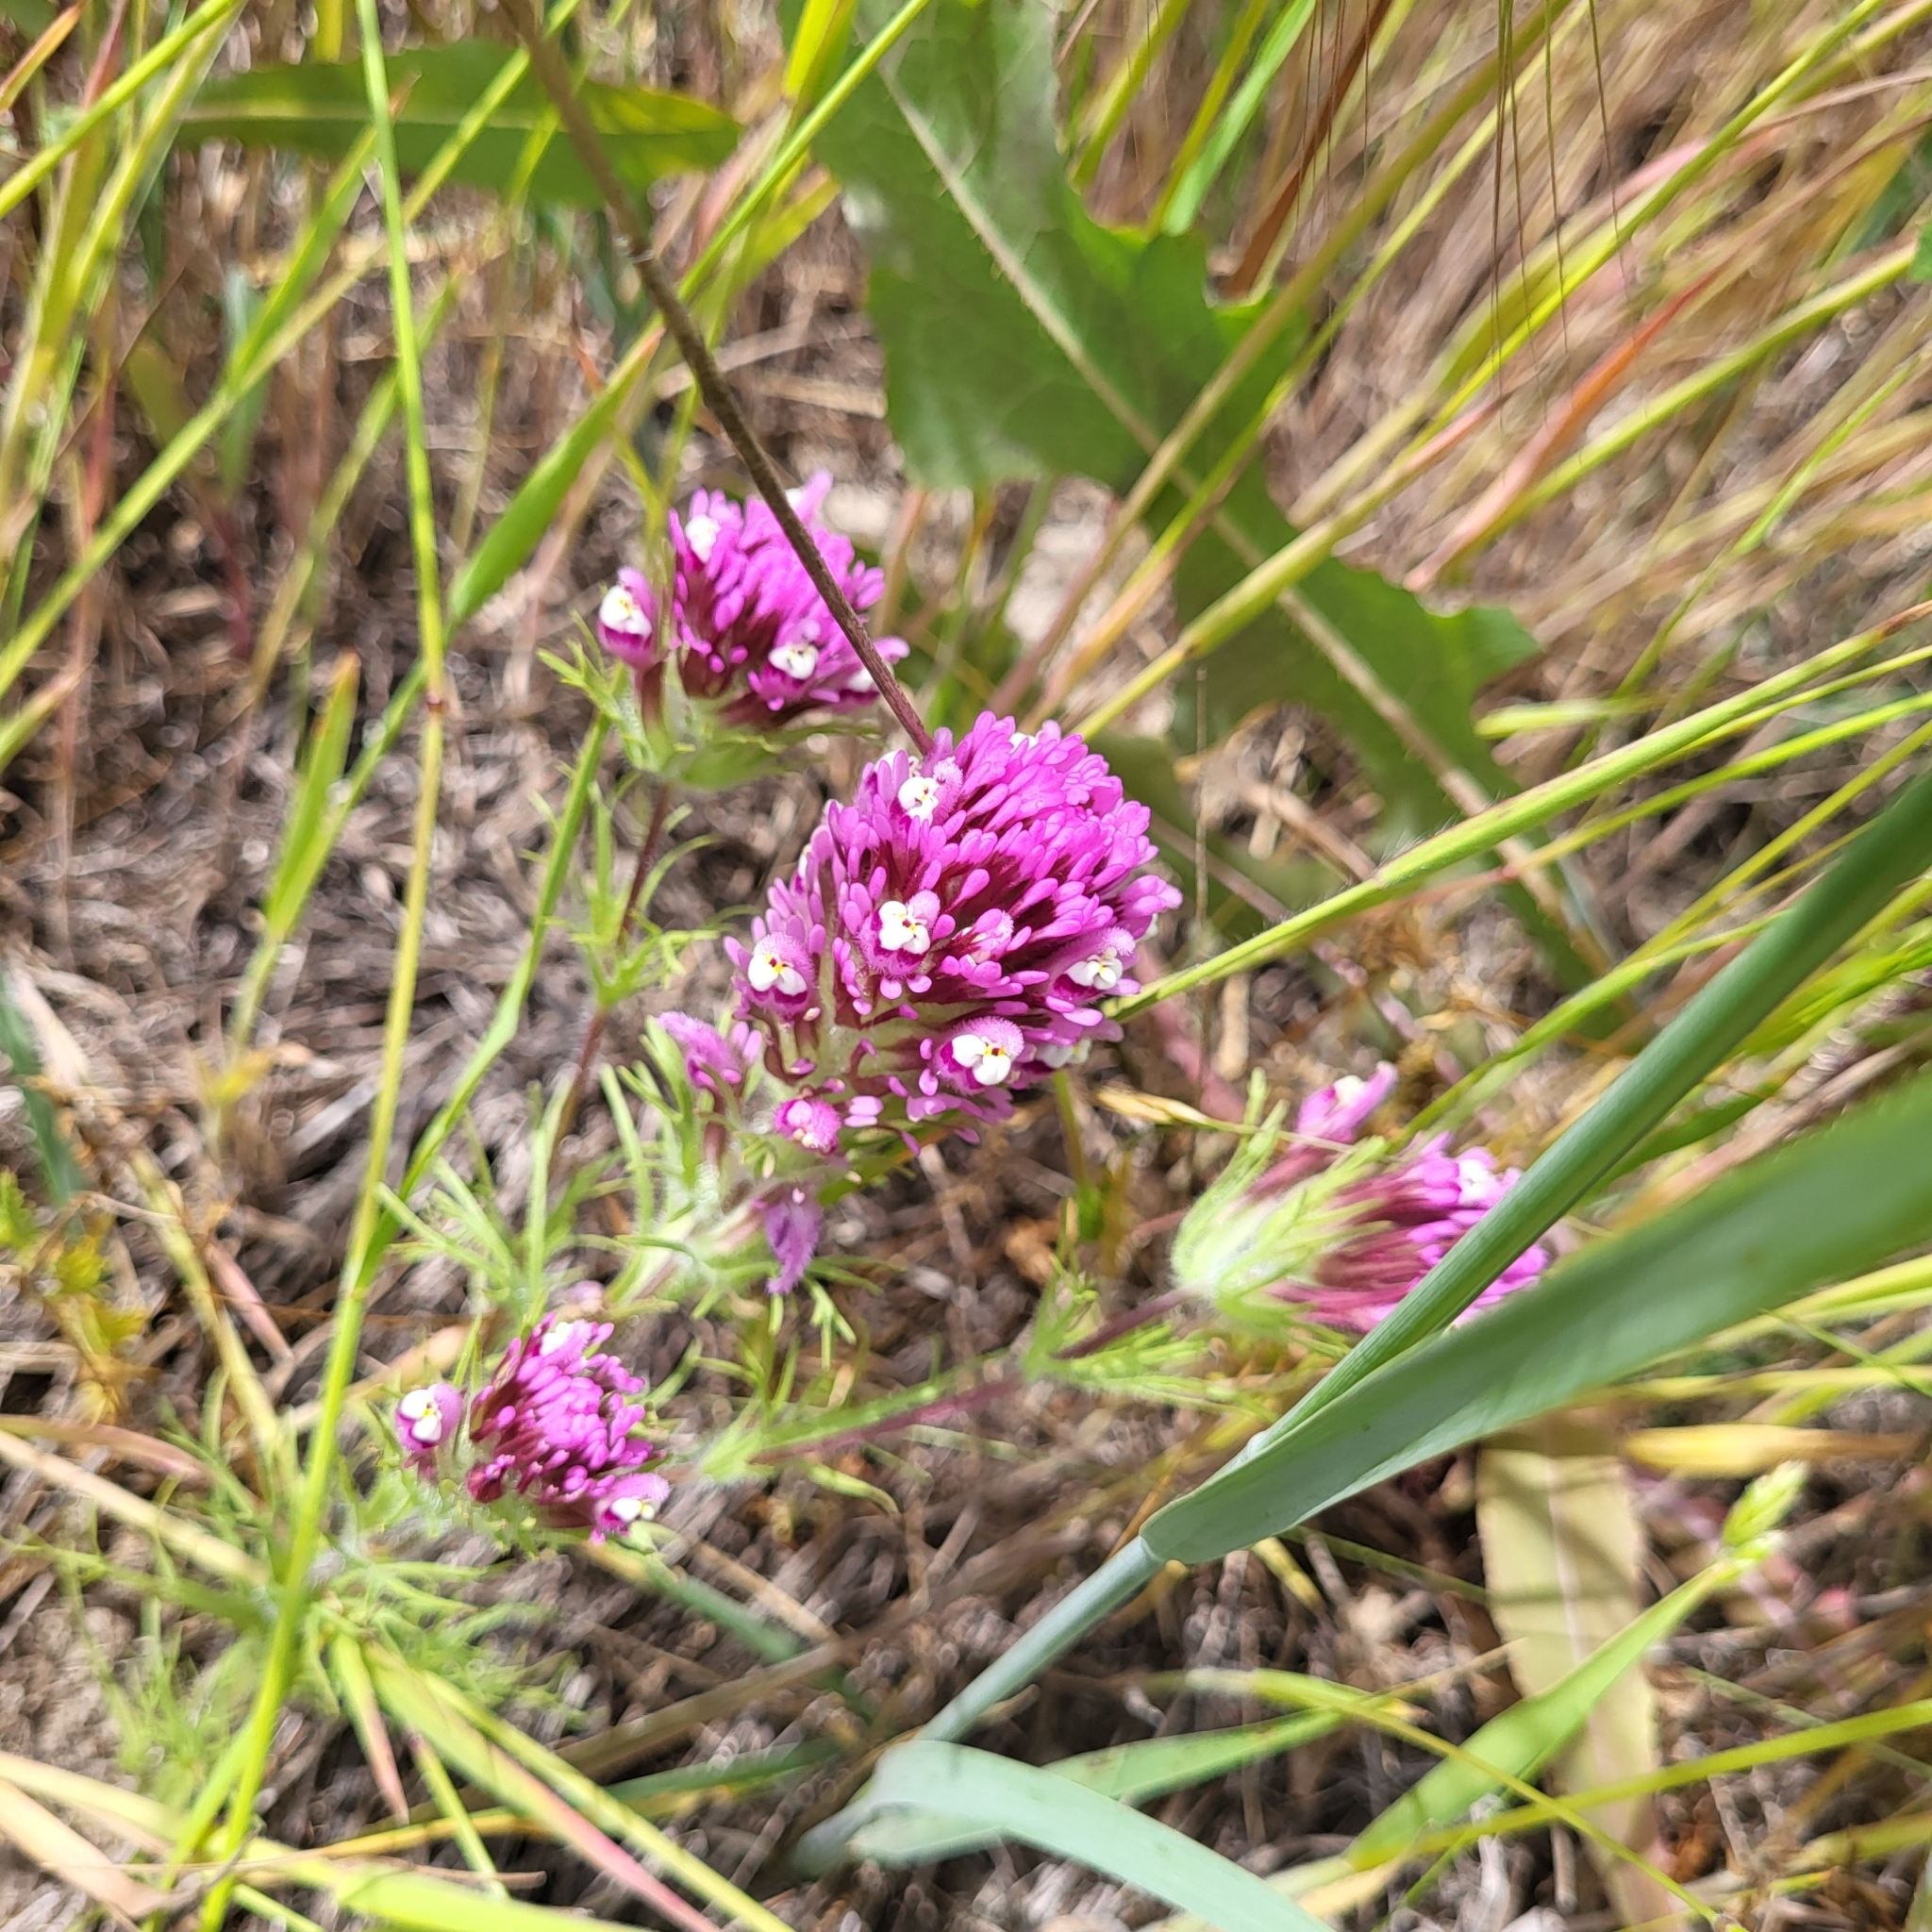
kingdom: Plantae
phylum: Tracheophyta
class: Magnoliopsida
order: Lamiales
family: Orobanchaceae
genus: Castilleja
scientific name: Castilleja exserta
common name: Purple owl-clover
